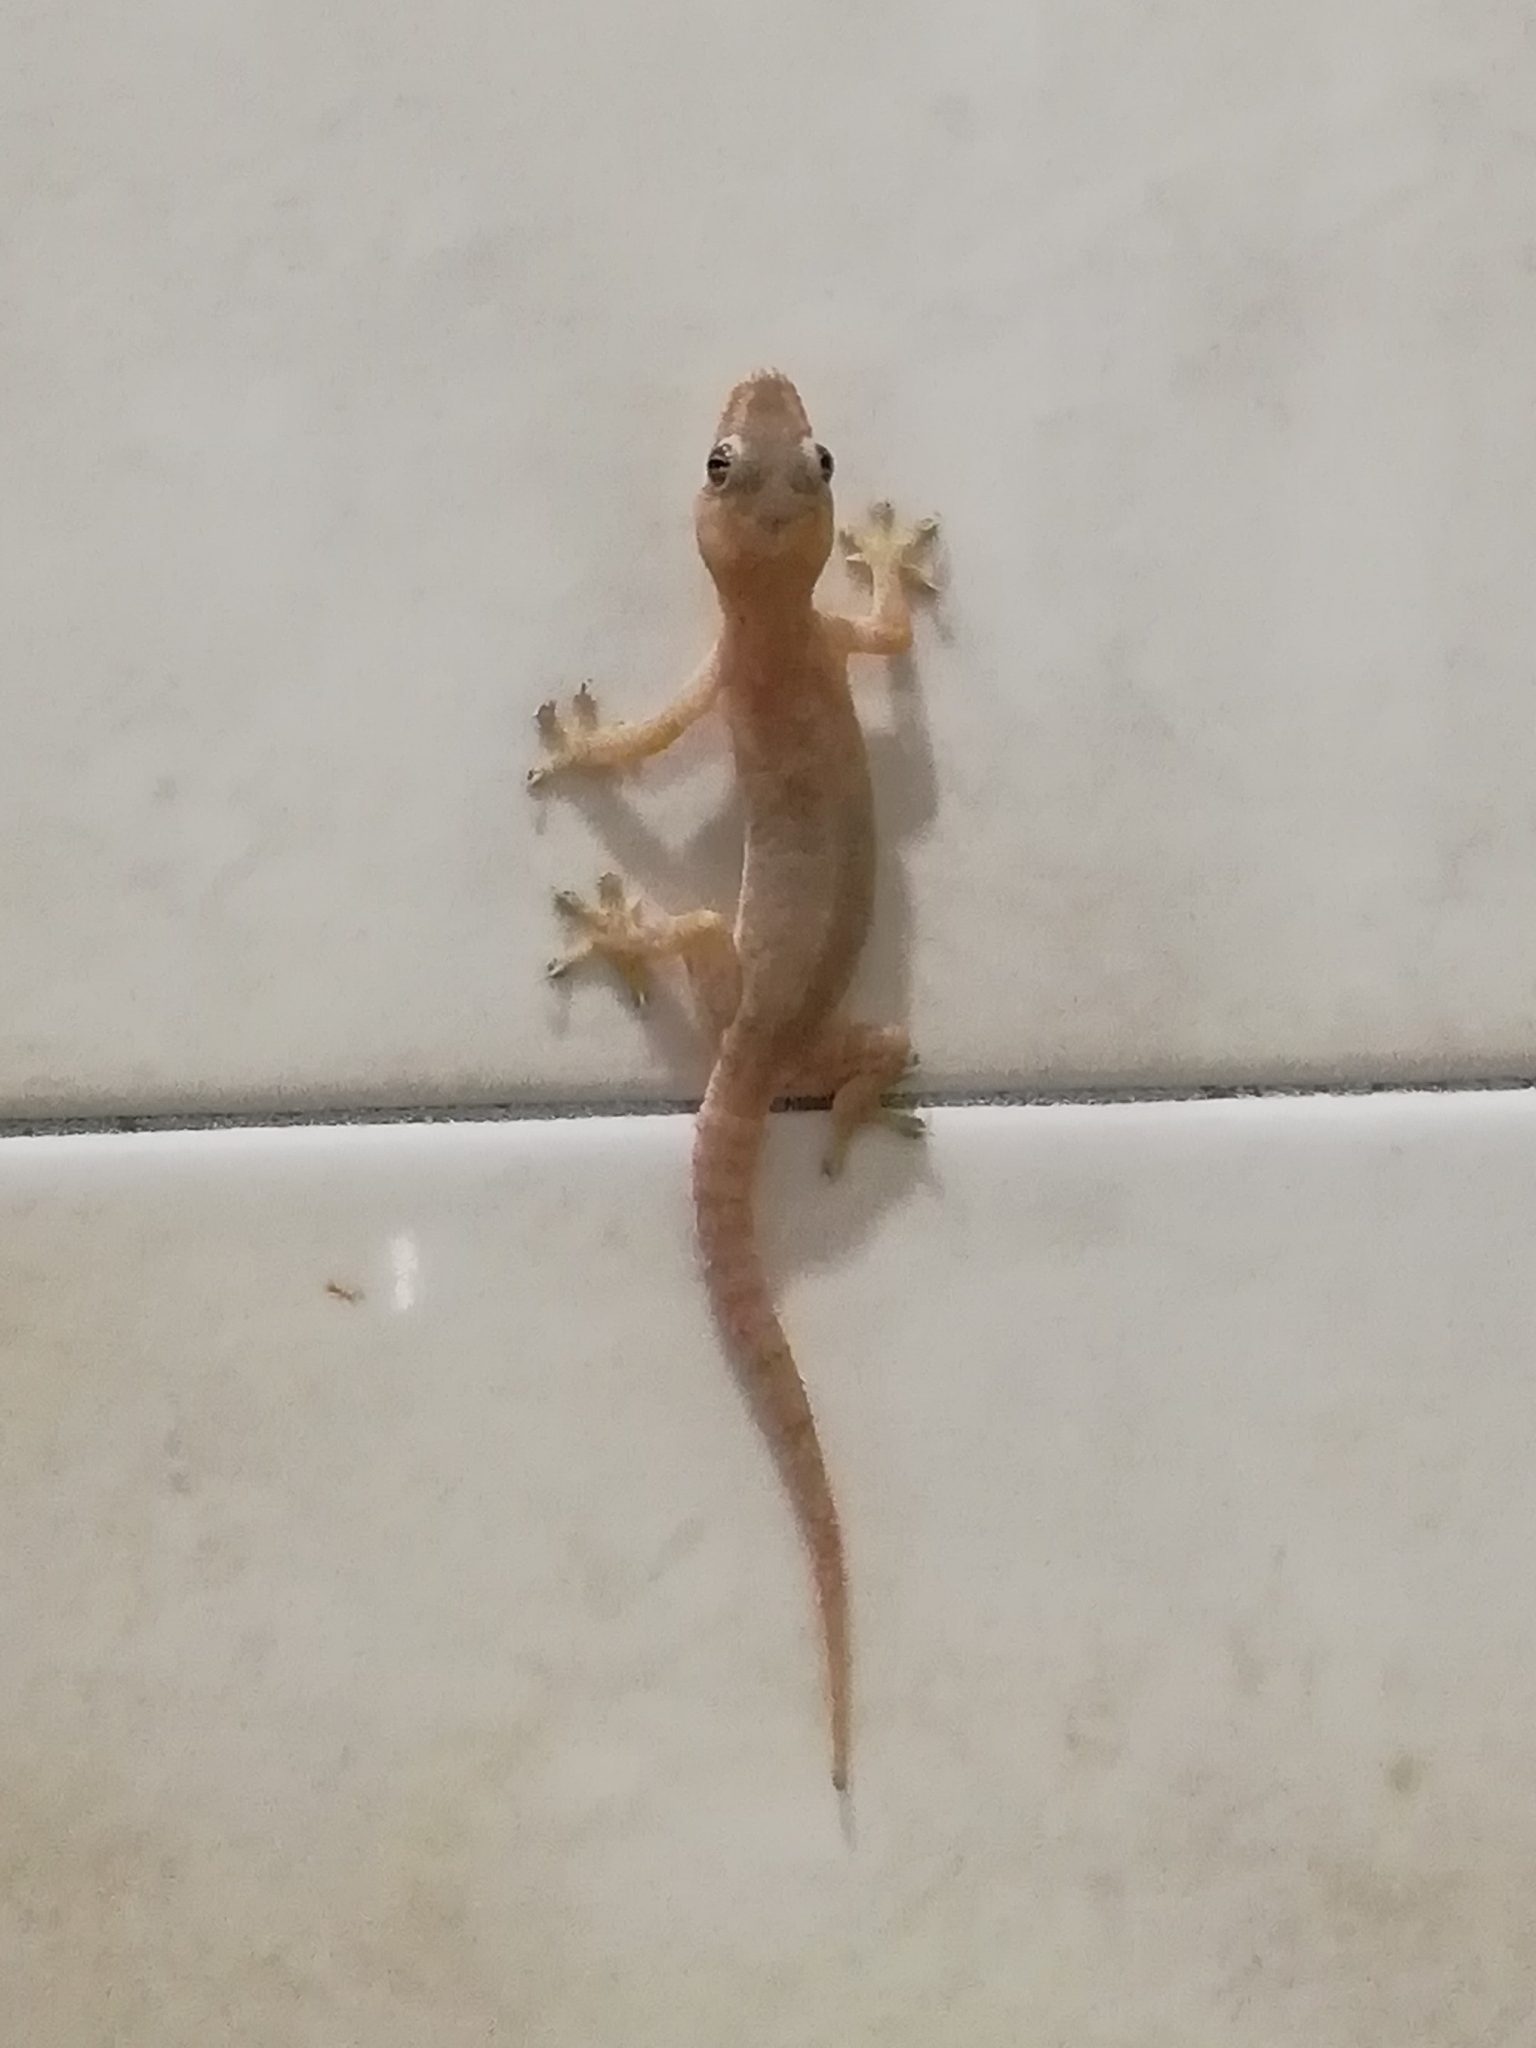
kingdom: Animalia
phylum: Chordata
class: Squamata
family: Gekkonidae
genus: Hemidactylus
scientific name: Hemidactylus frenatus
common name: Common house gecko
